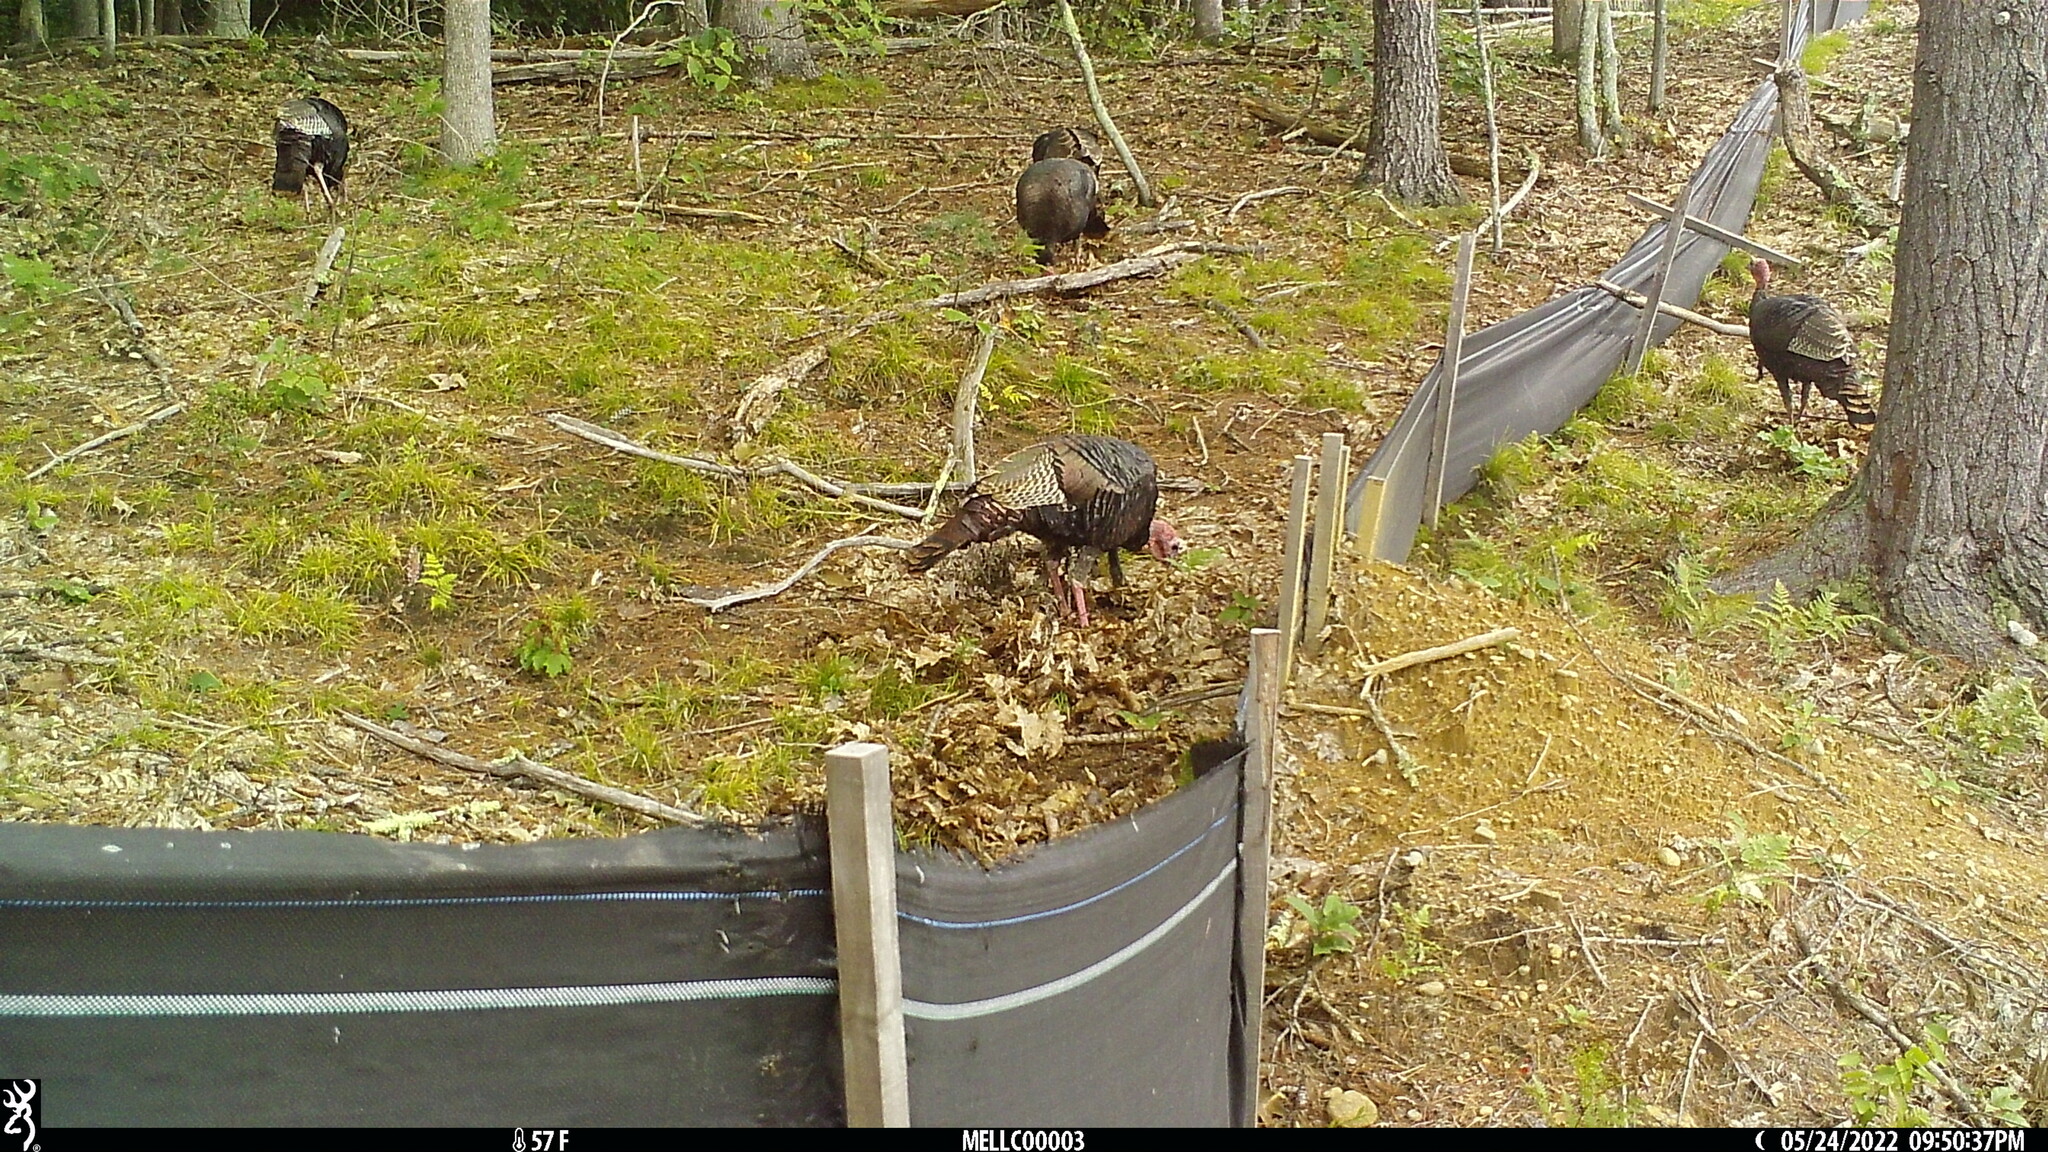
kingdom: Animalia
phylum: Chordata
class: Aves
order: Galliformes
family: Phasianidae
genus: Meleagris
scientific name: Meleagris gallopavo
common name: Wild turkey
